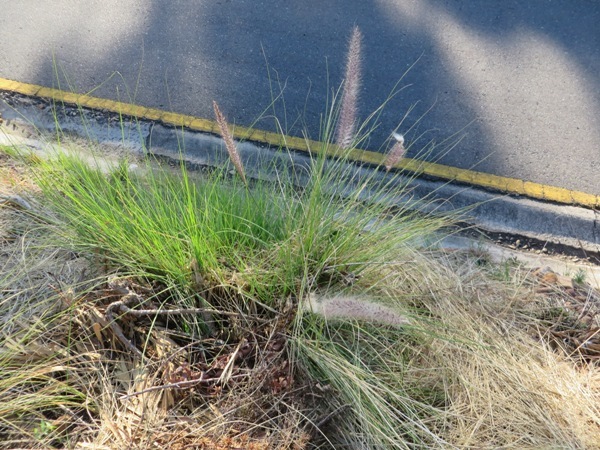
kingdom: Plantae
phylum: Tracheophyta
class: Liliopsida
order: Poales
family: Poaceae
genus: Cenchrus
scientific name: Cenchrus setaceus
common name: Crimson fountaingrass
